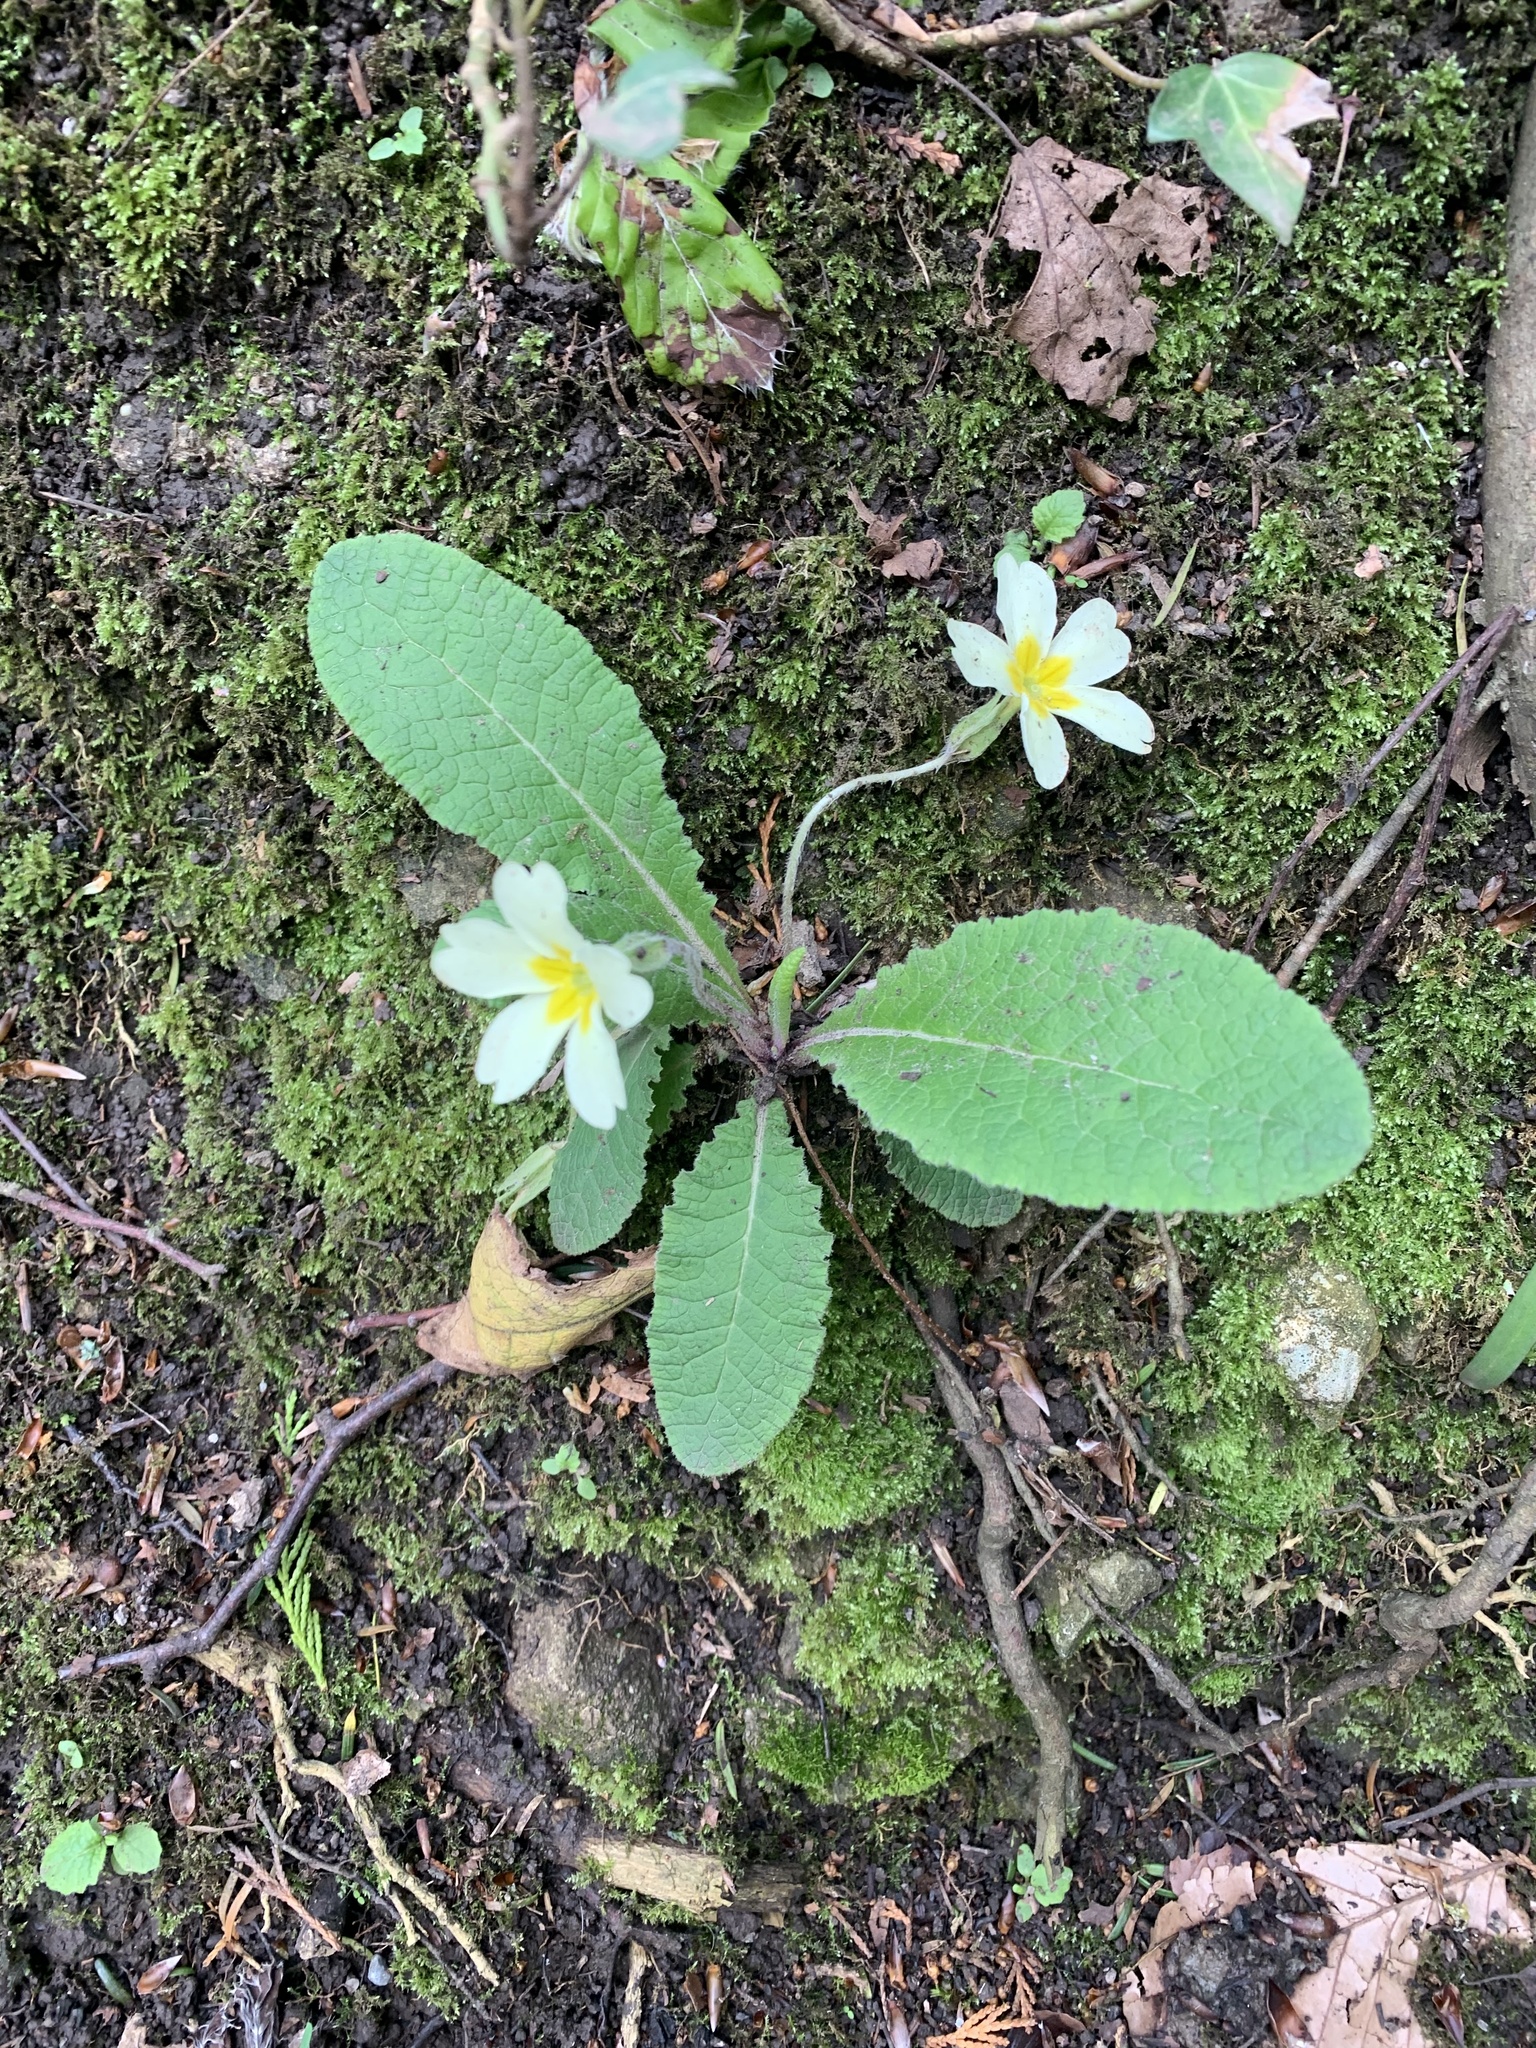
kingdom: Plantae
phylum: Tracheophyta
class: Magnoliopsida
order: Ericales
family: Primulaceae
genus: Primula
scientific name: Primula vulgaris
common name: Primrose
